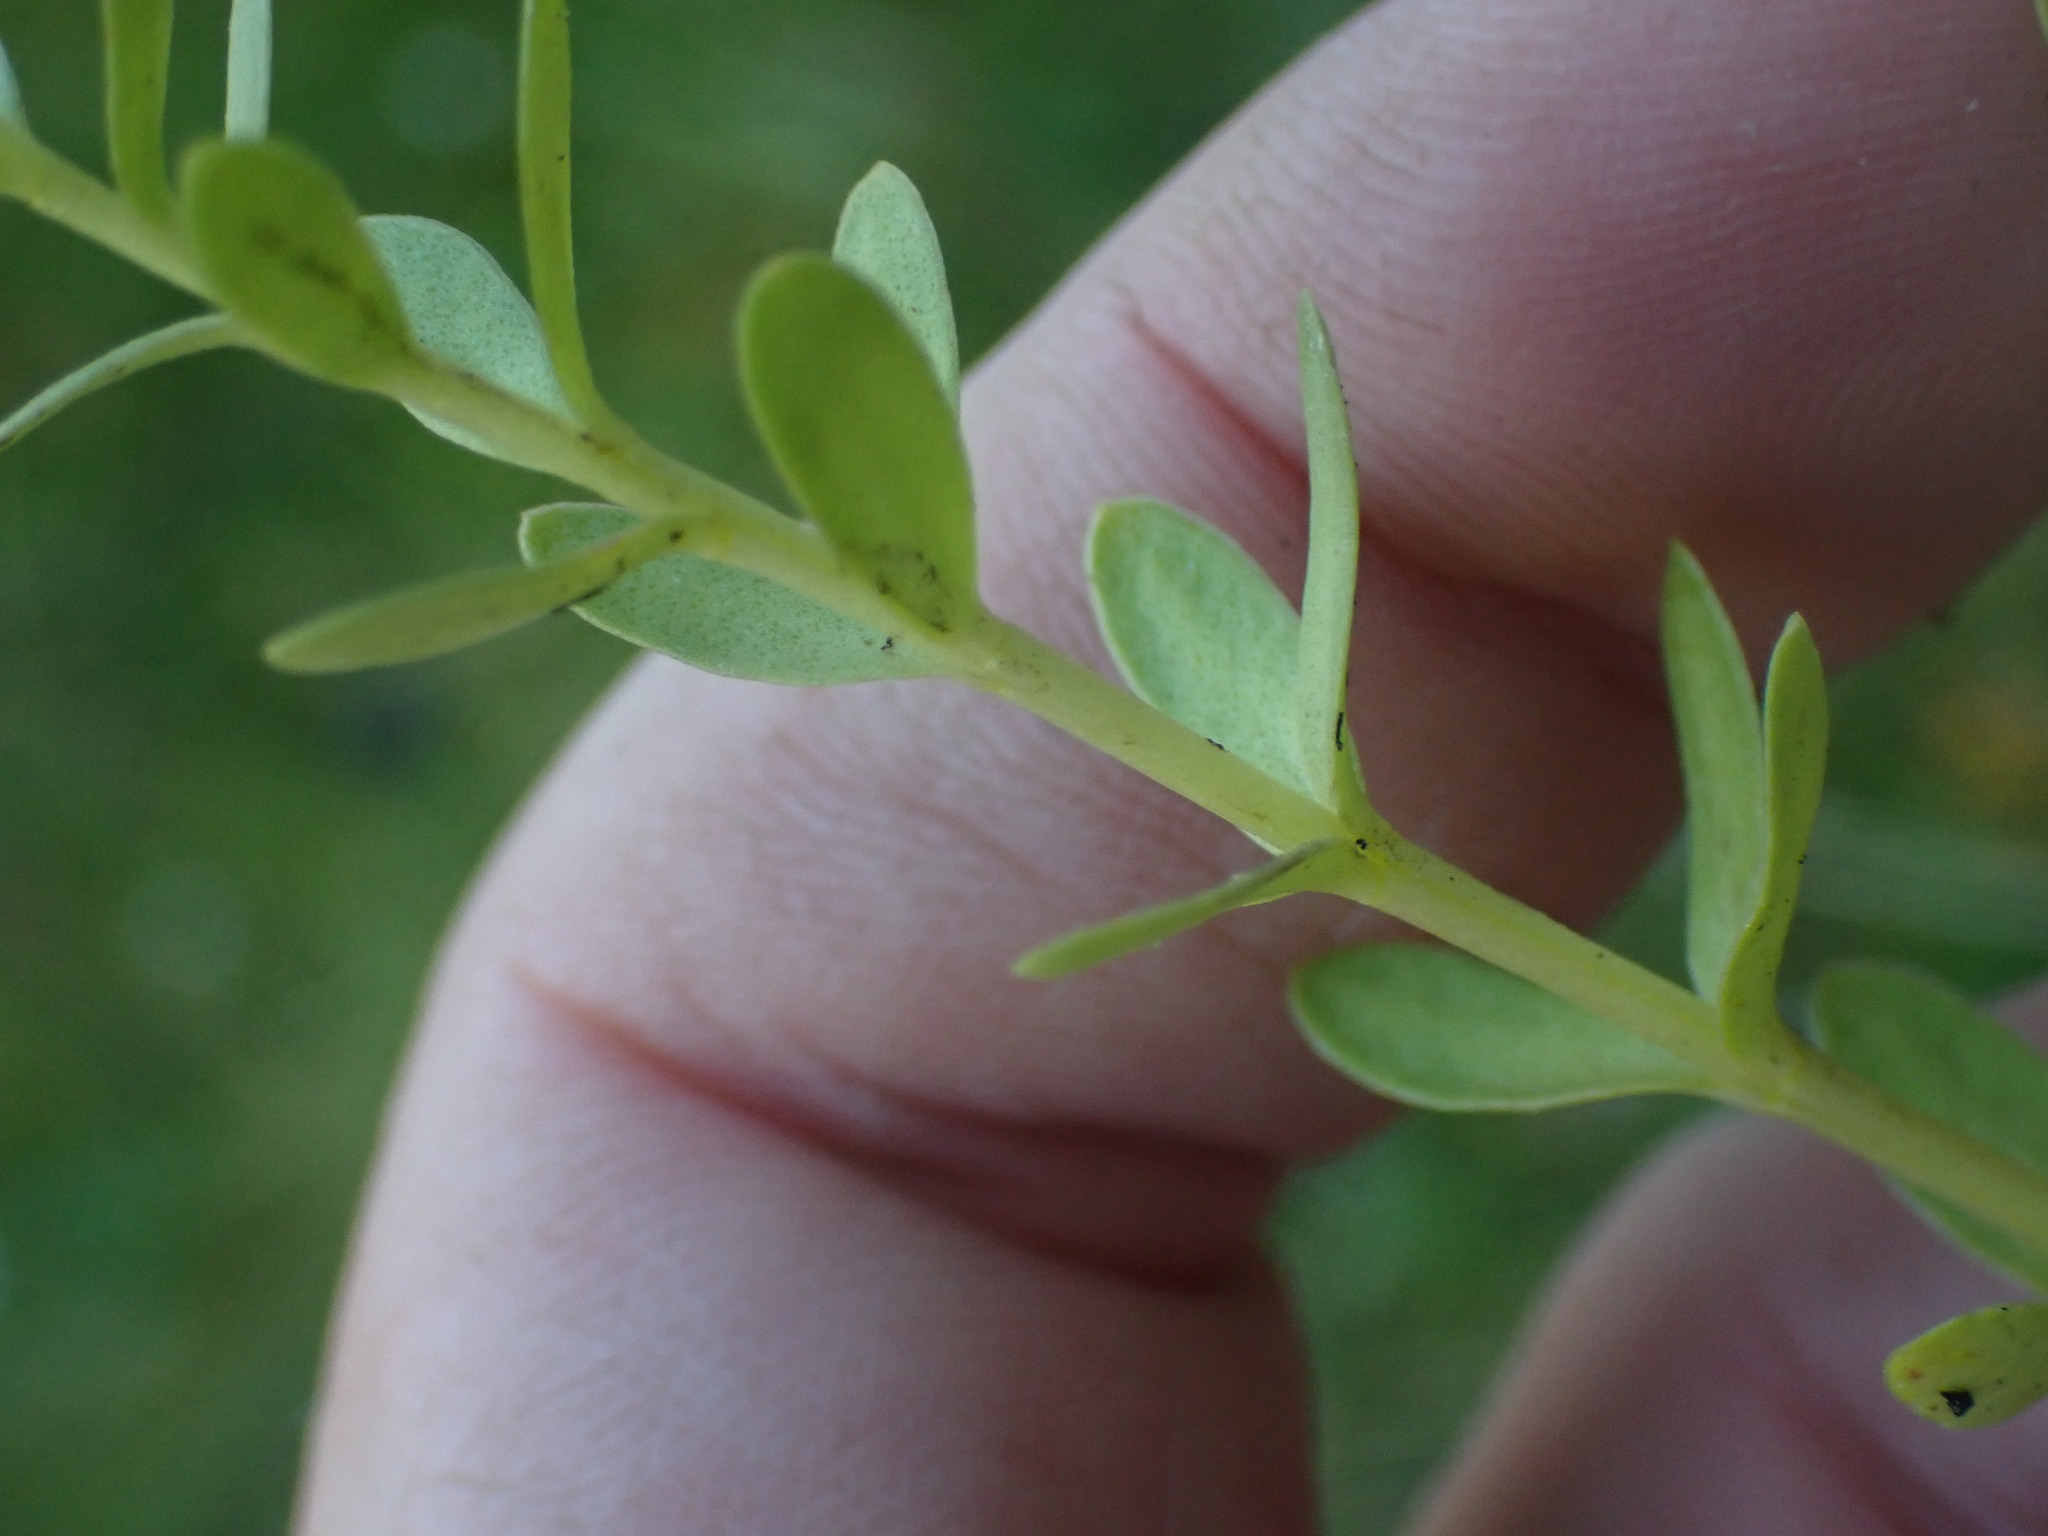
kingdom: Plantae
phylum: Tracheophyta
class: Magnoliopsida
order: Ericales
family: Primulaceae
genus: Lysimachia
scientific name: Lysimachia maritima
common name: Sea milkwort
